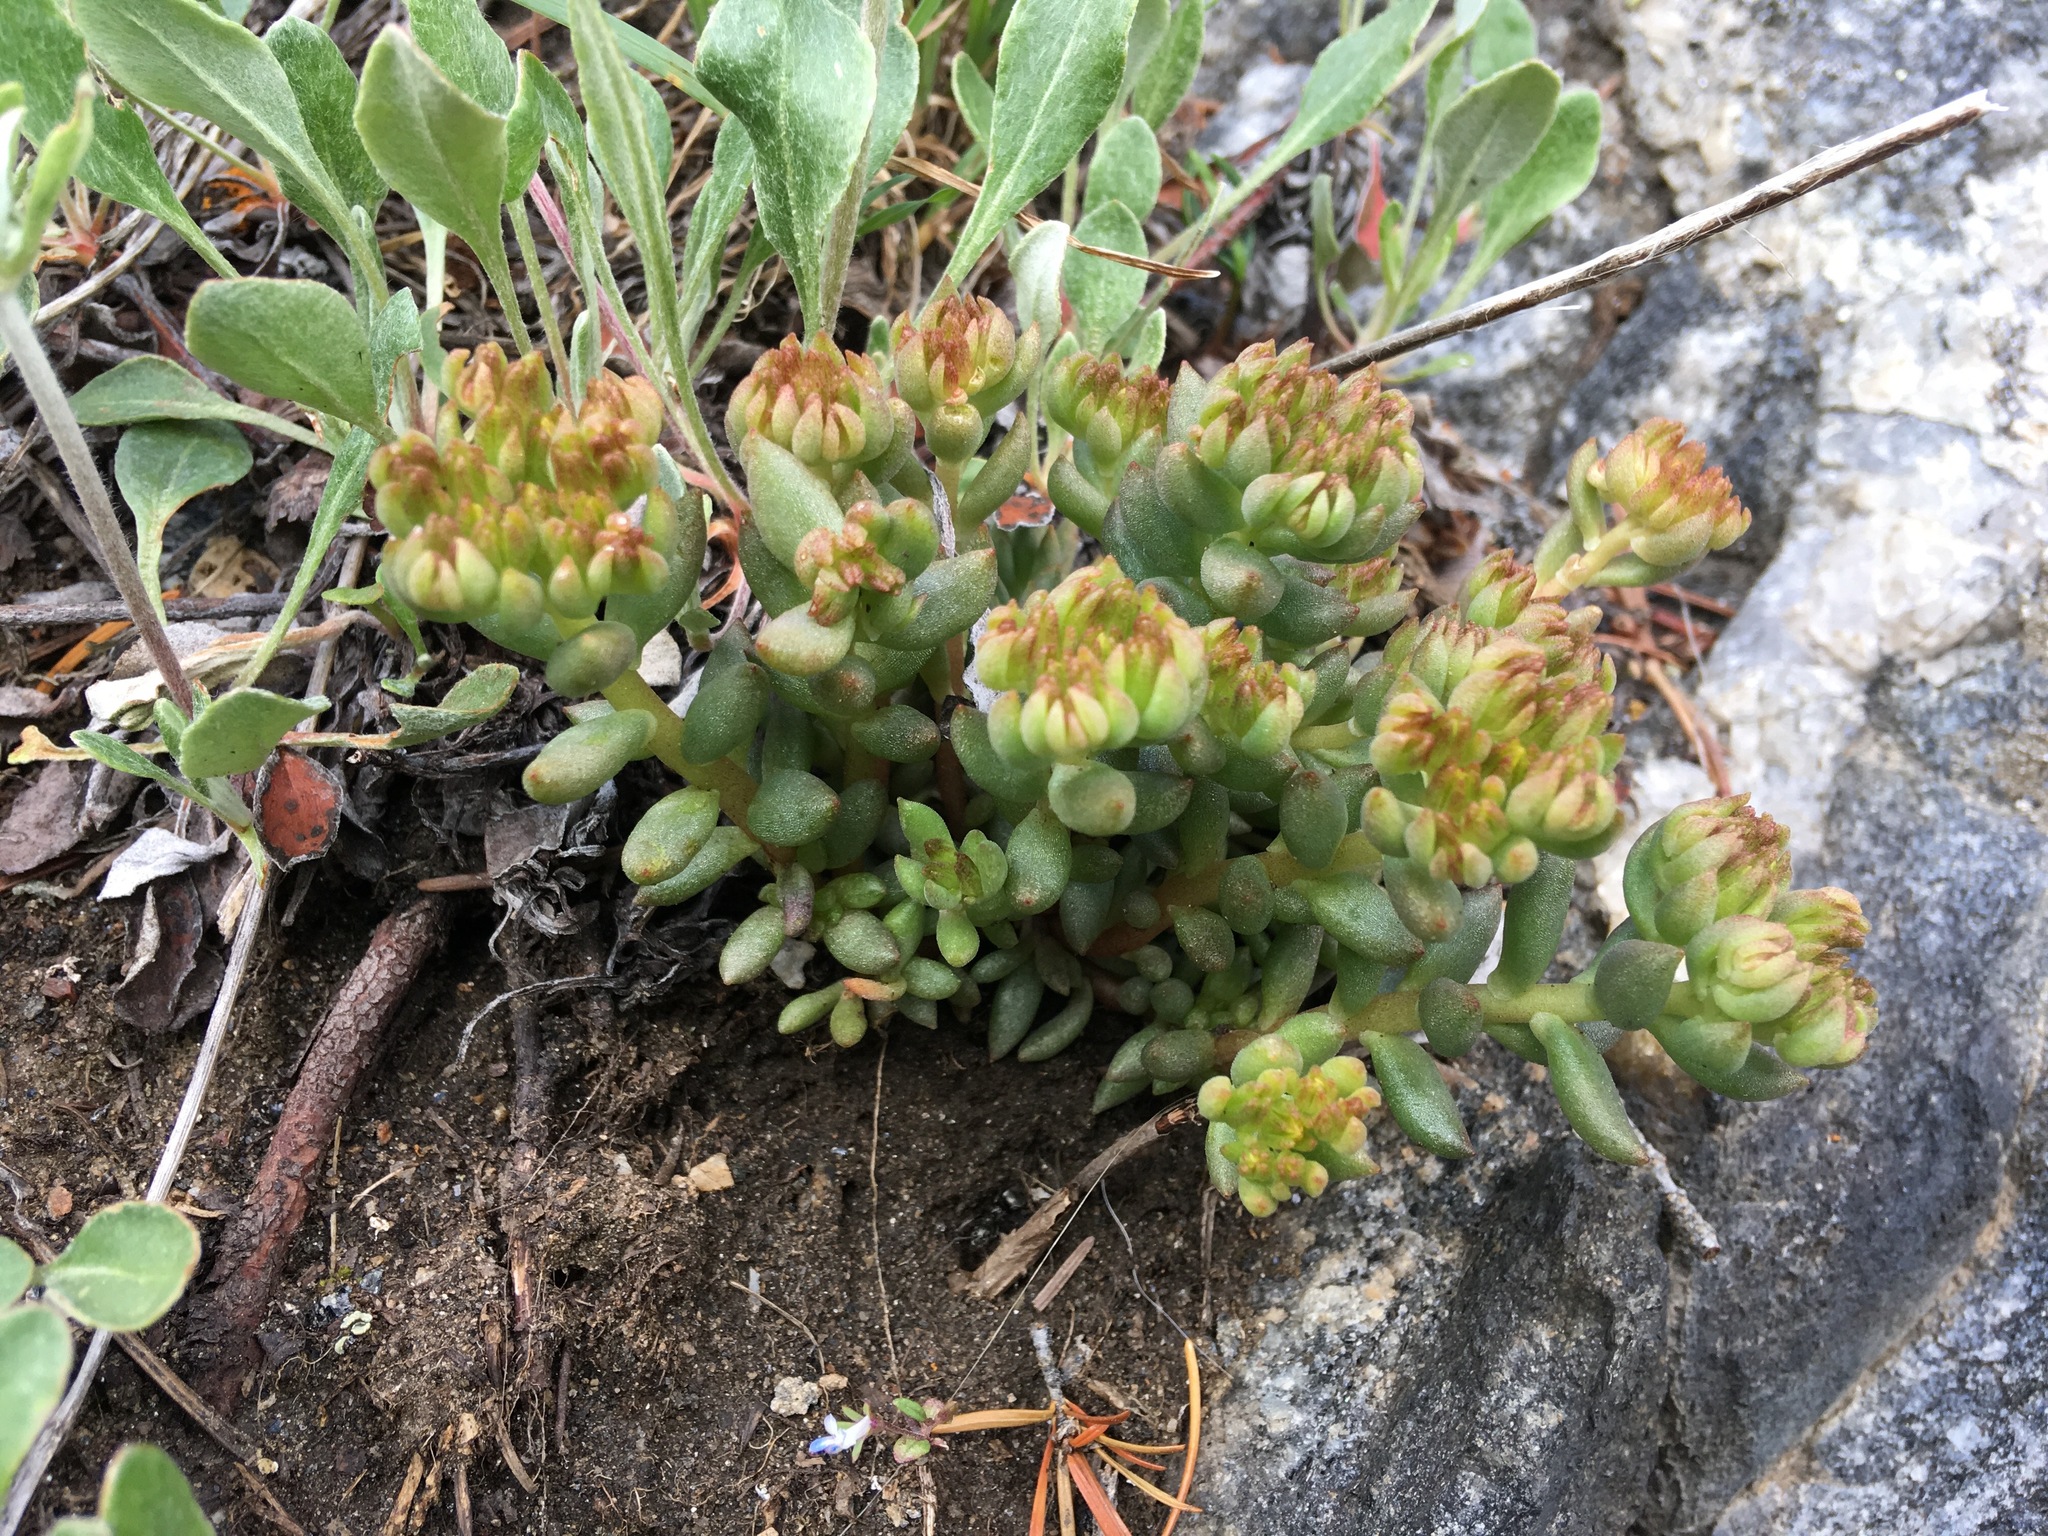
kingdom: Plantae
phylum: Tracheophyta
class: Magnoliopsida
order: Saxifragales
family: Crassulaceae
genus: Sedum
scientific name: Sedum lanceolatum
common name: Common stonecrop
